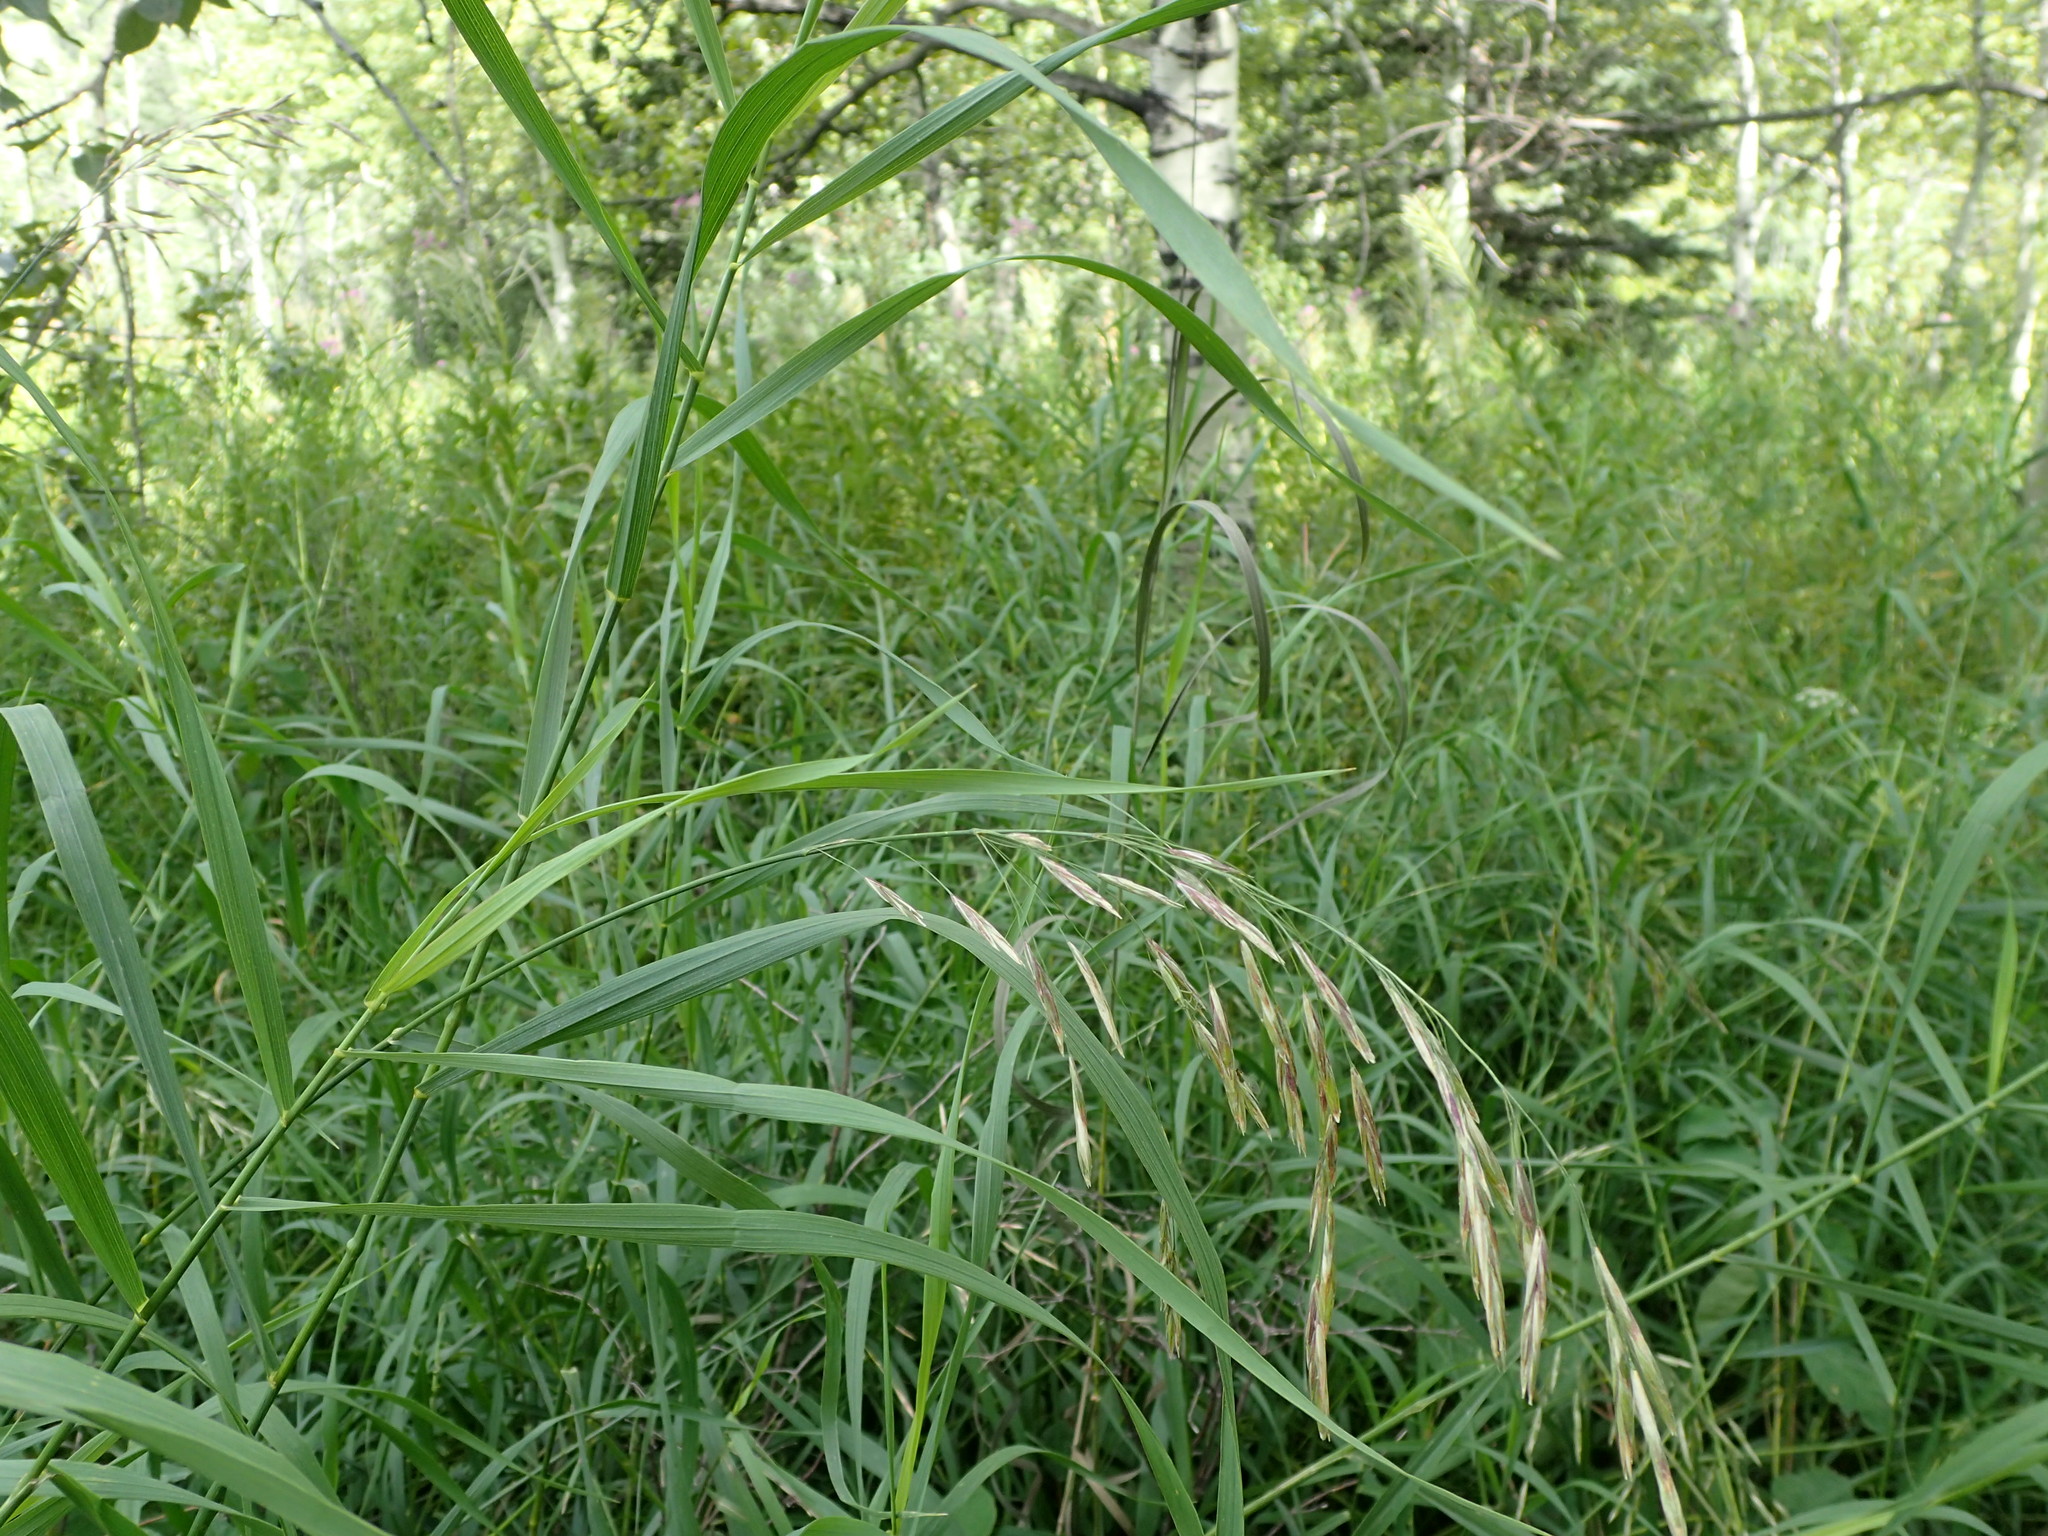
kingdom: Plantae
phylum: Tracheophyta
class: Liliopsida
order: Poales
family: Poaceae
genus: Bromus
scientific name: Bromus inermis
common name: Smooth brome
